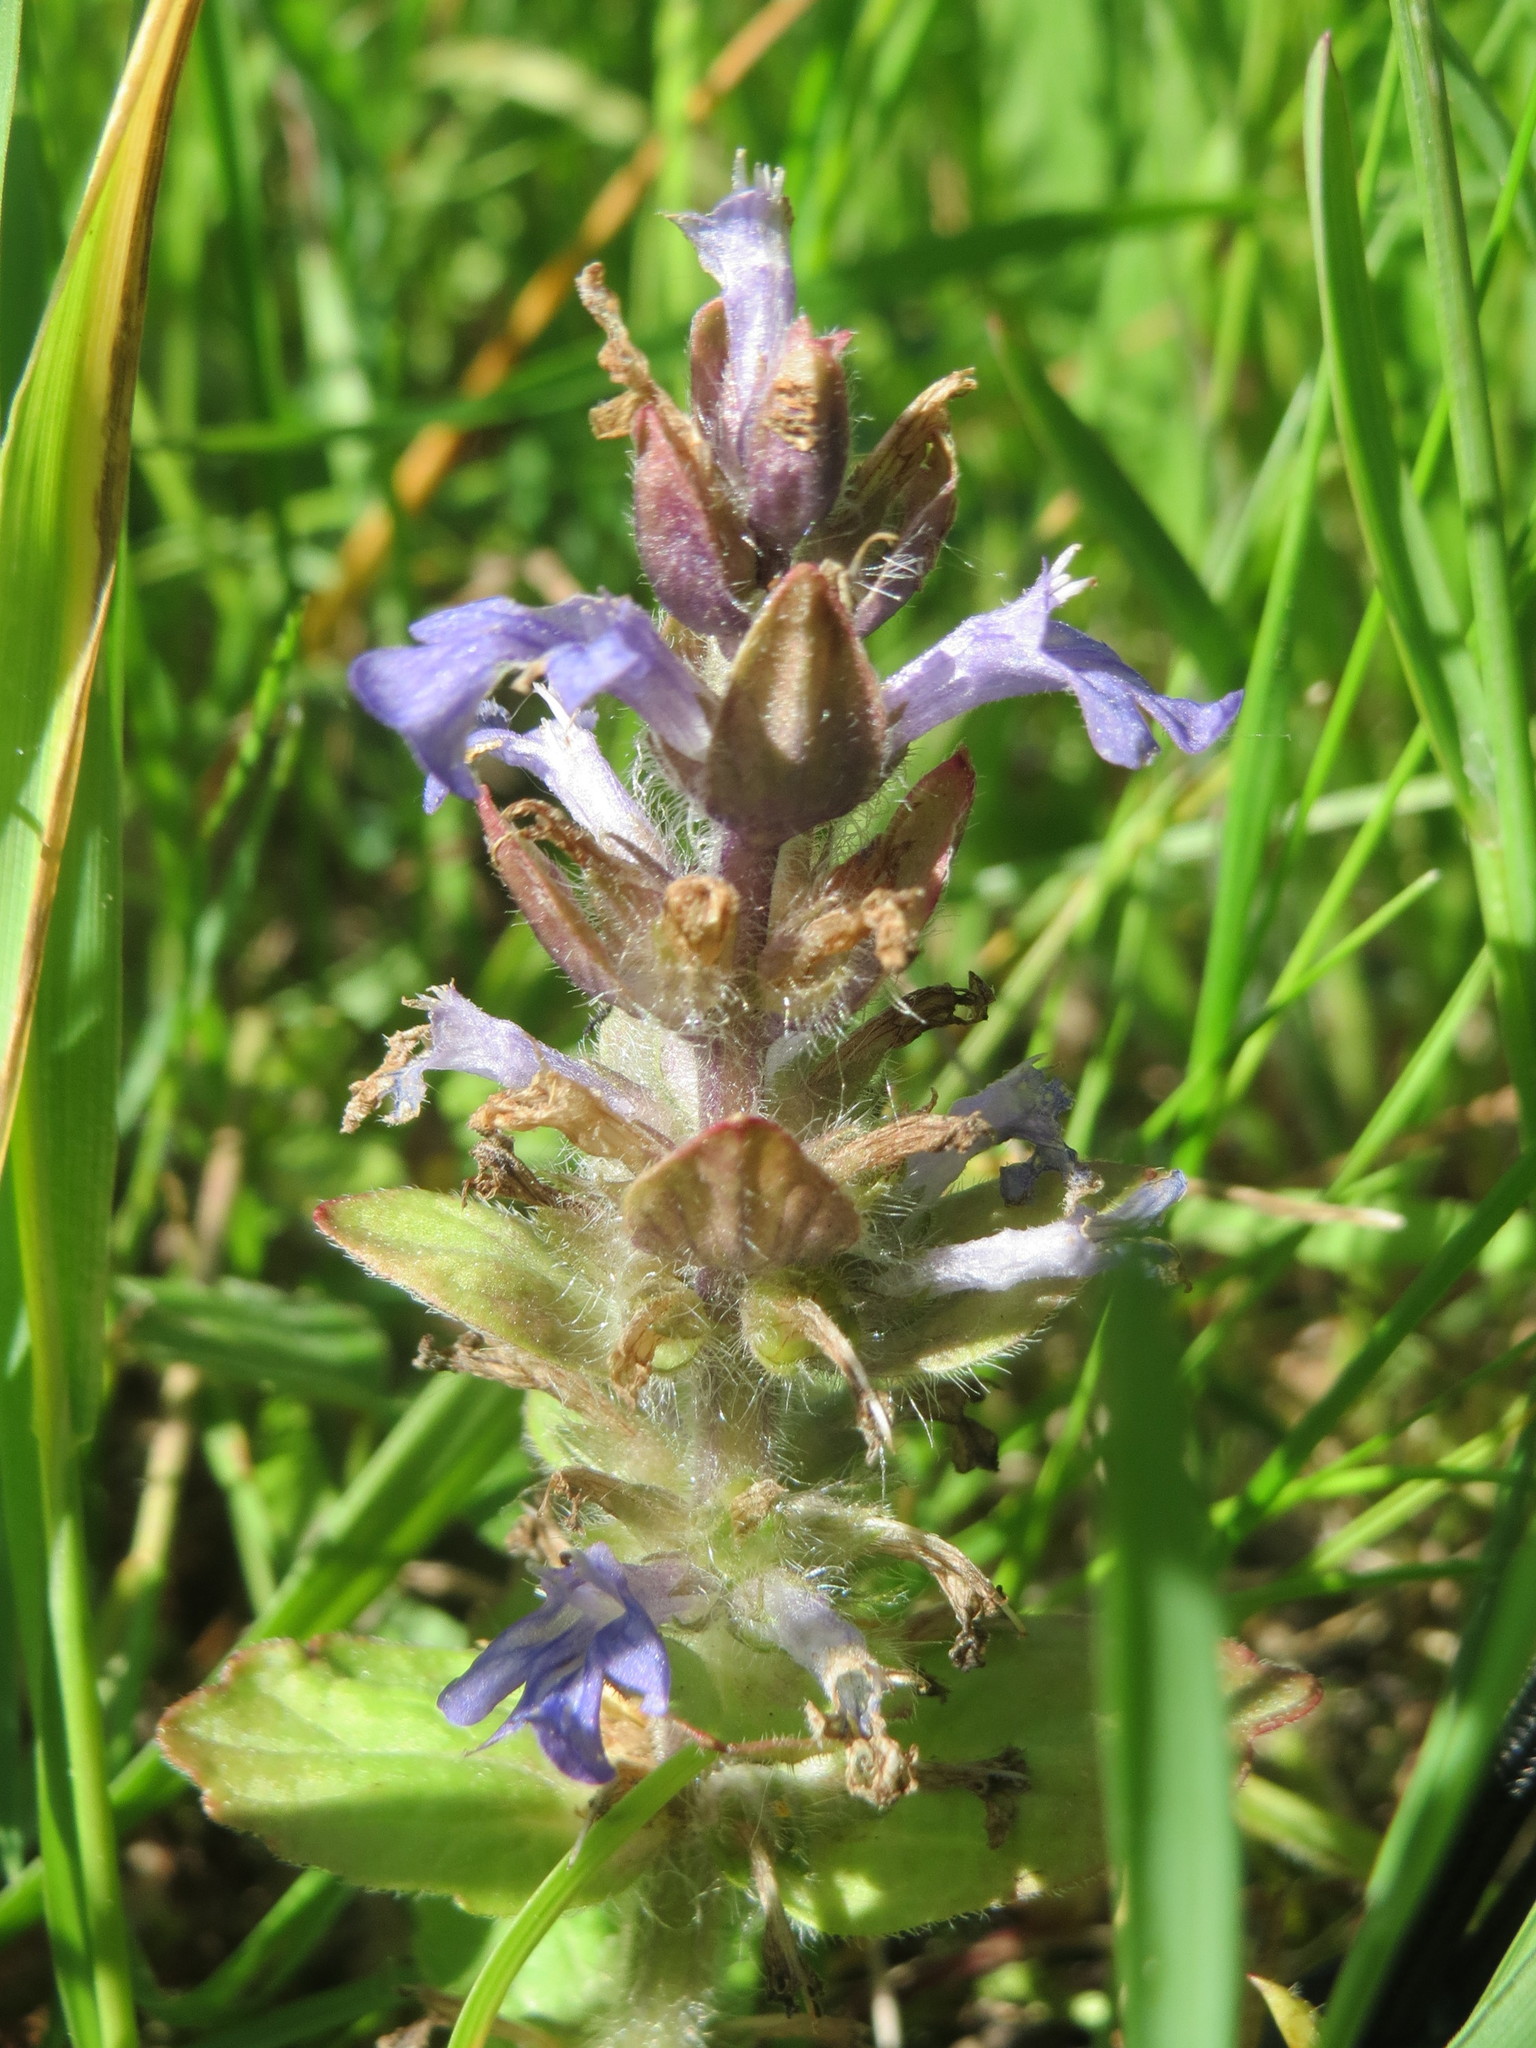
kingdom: Plantae
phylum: Tracheophyta
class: Magnoliopsida
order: Lamiales
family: Lamiaceae
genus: Ajuga
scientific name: Ajuga reptans
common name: Bugle
